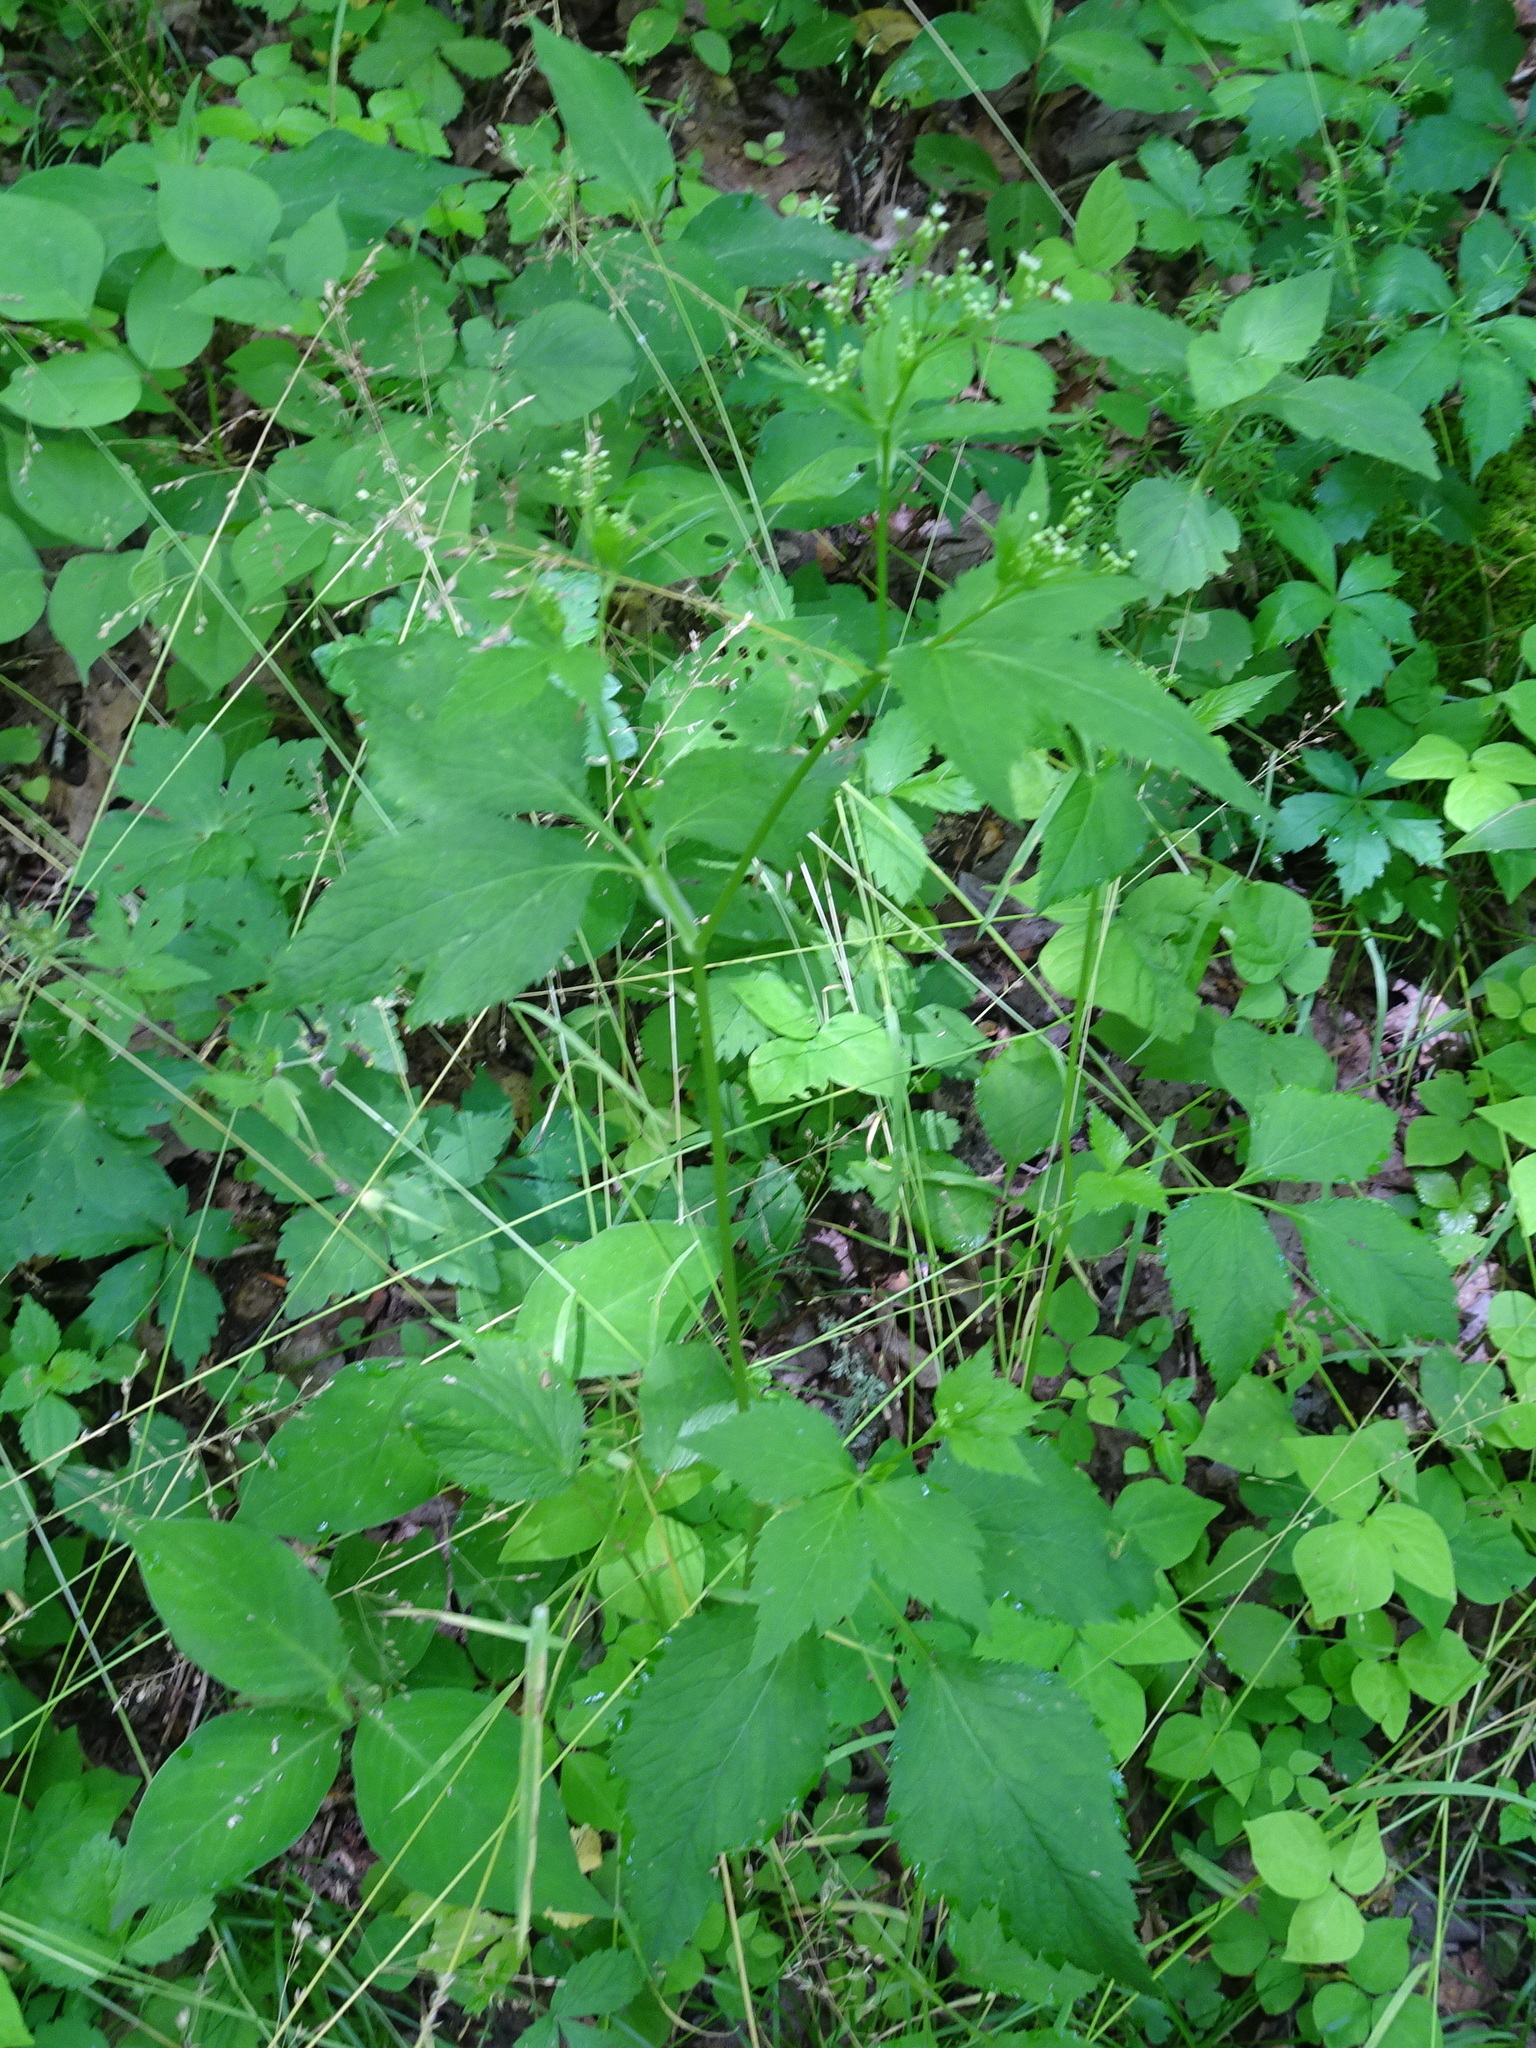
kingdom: Plantae
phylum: Tracheophyta
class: Magnoliopsida
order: Apiales
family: Apiaceae
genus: Cryptotaenia
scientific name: Cryptotaenia canadensis
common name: Honewort
